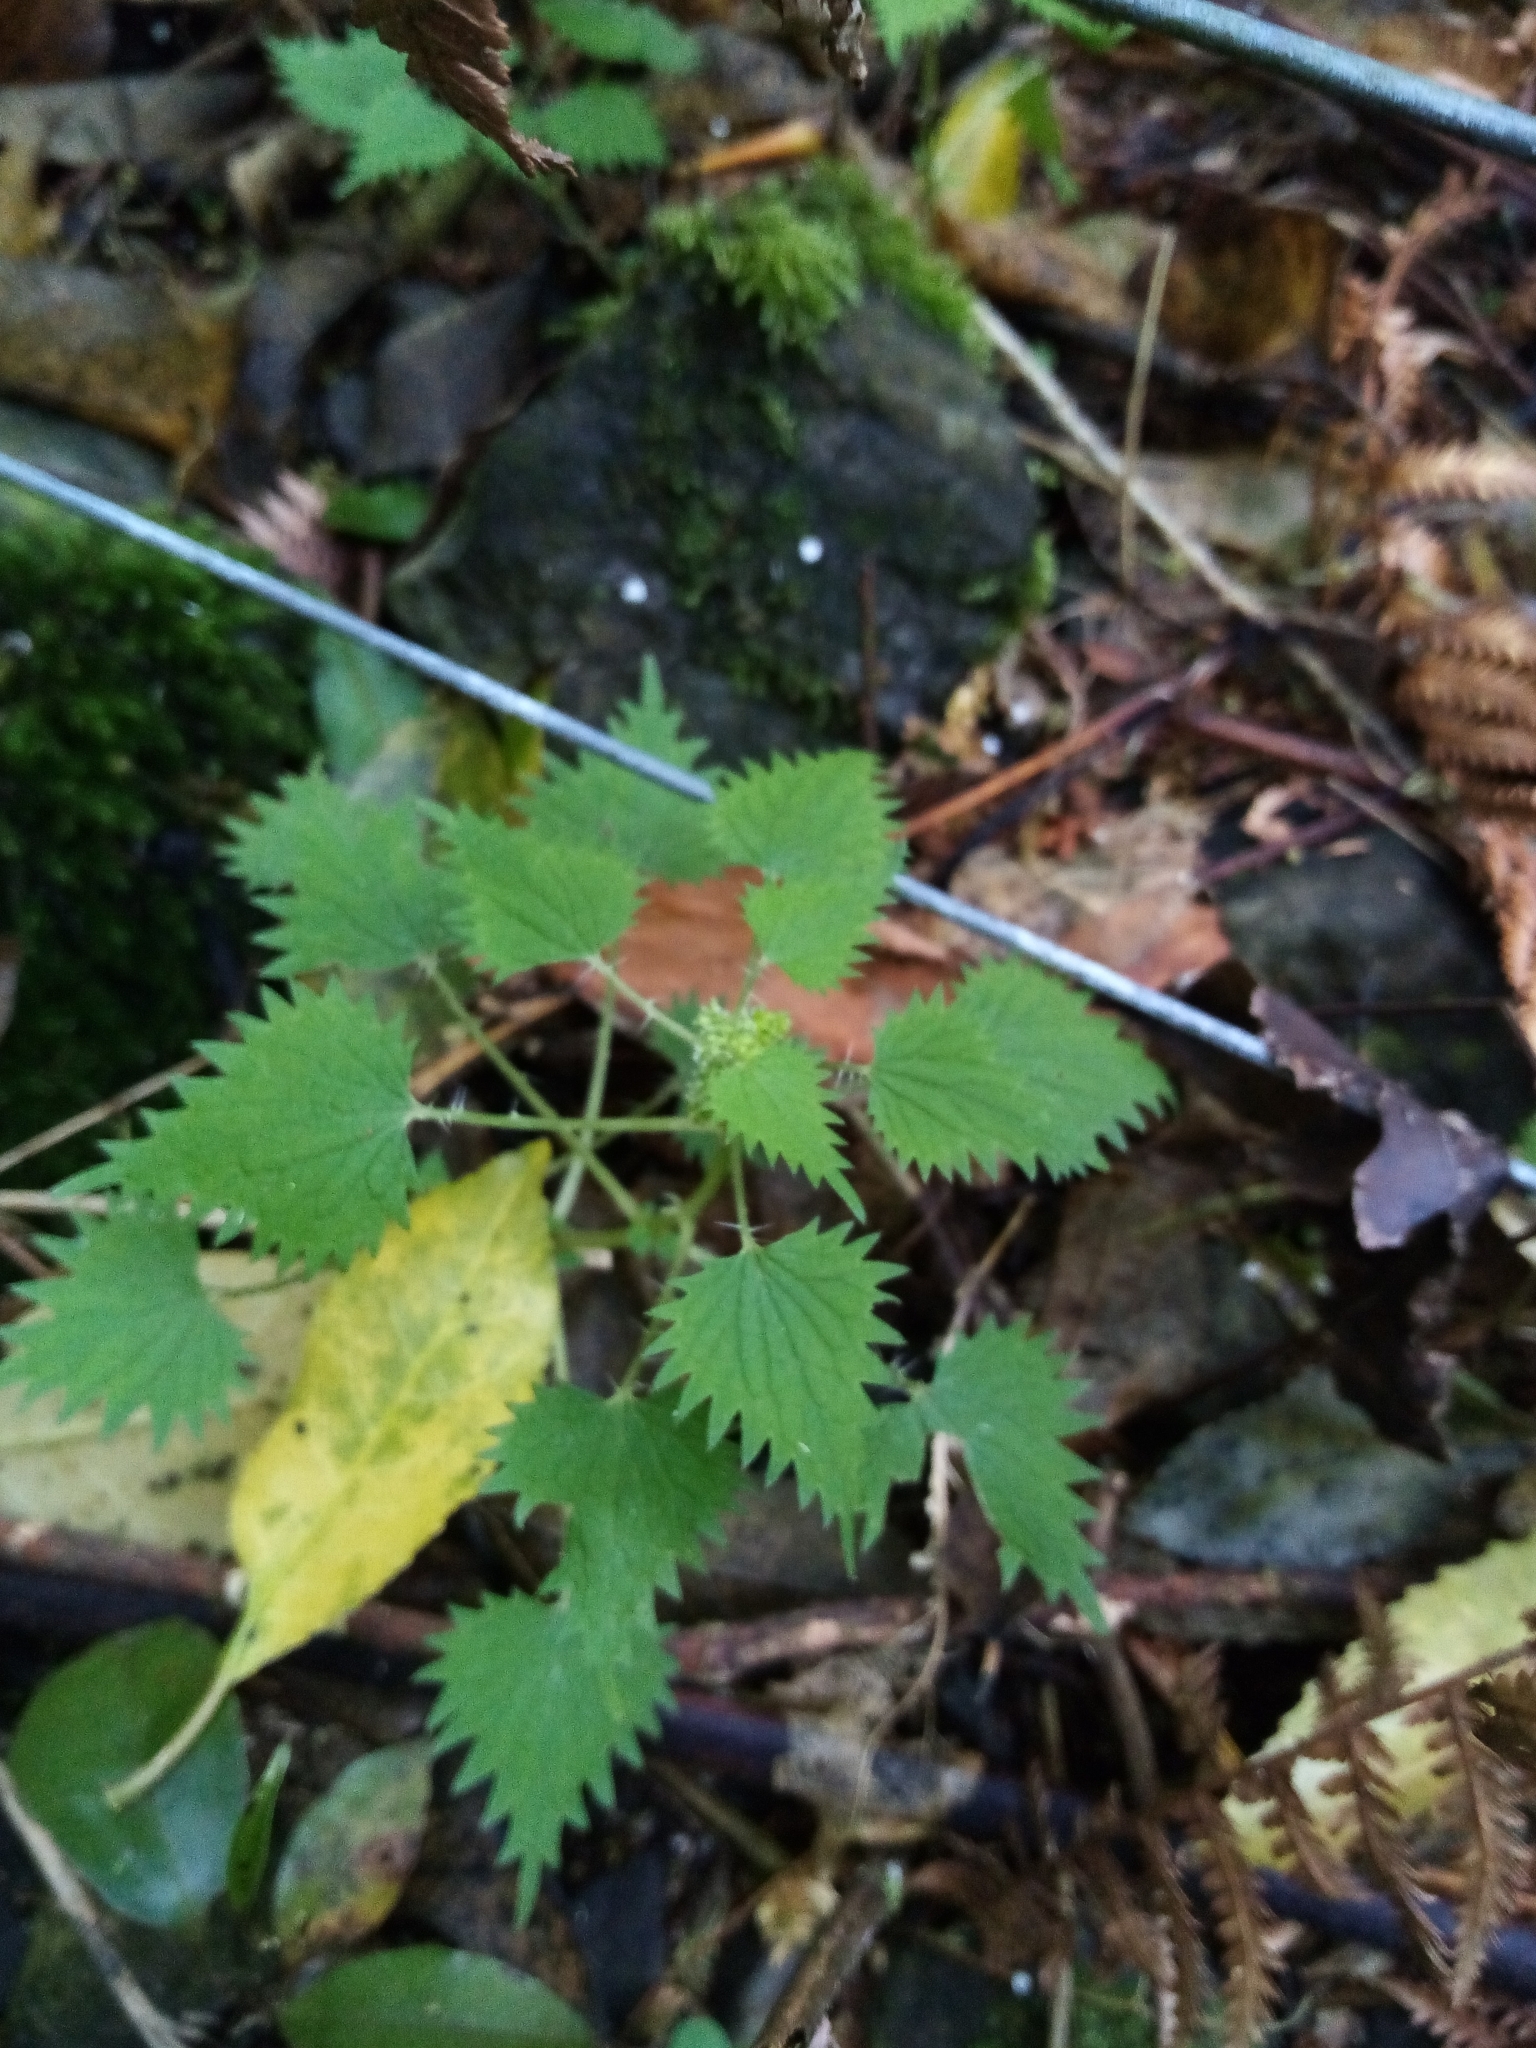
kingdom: Plantae
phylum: Tracheophyta
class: Magnoliopsida
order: Rosales
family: Urticaceae
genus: Urtica
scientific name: Urtica sykesii
